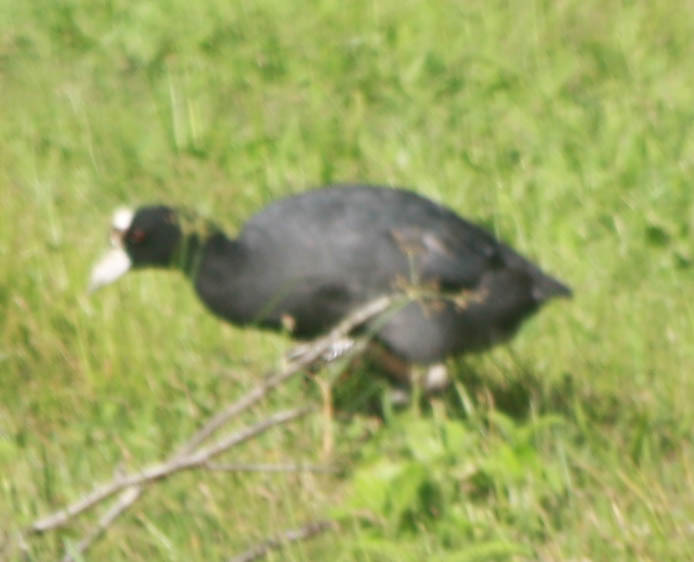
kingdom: Animalia
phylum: Chordata
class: Aves
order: Gruiformes
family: Rallidae
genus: Fulica
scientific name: Fulica alai
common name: Hawaiian coot
